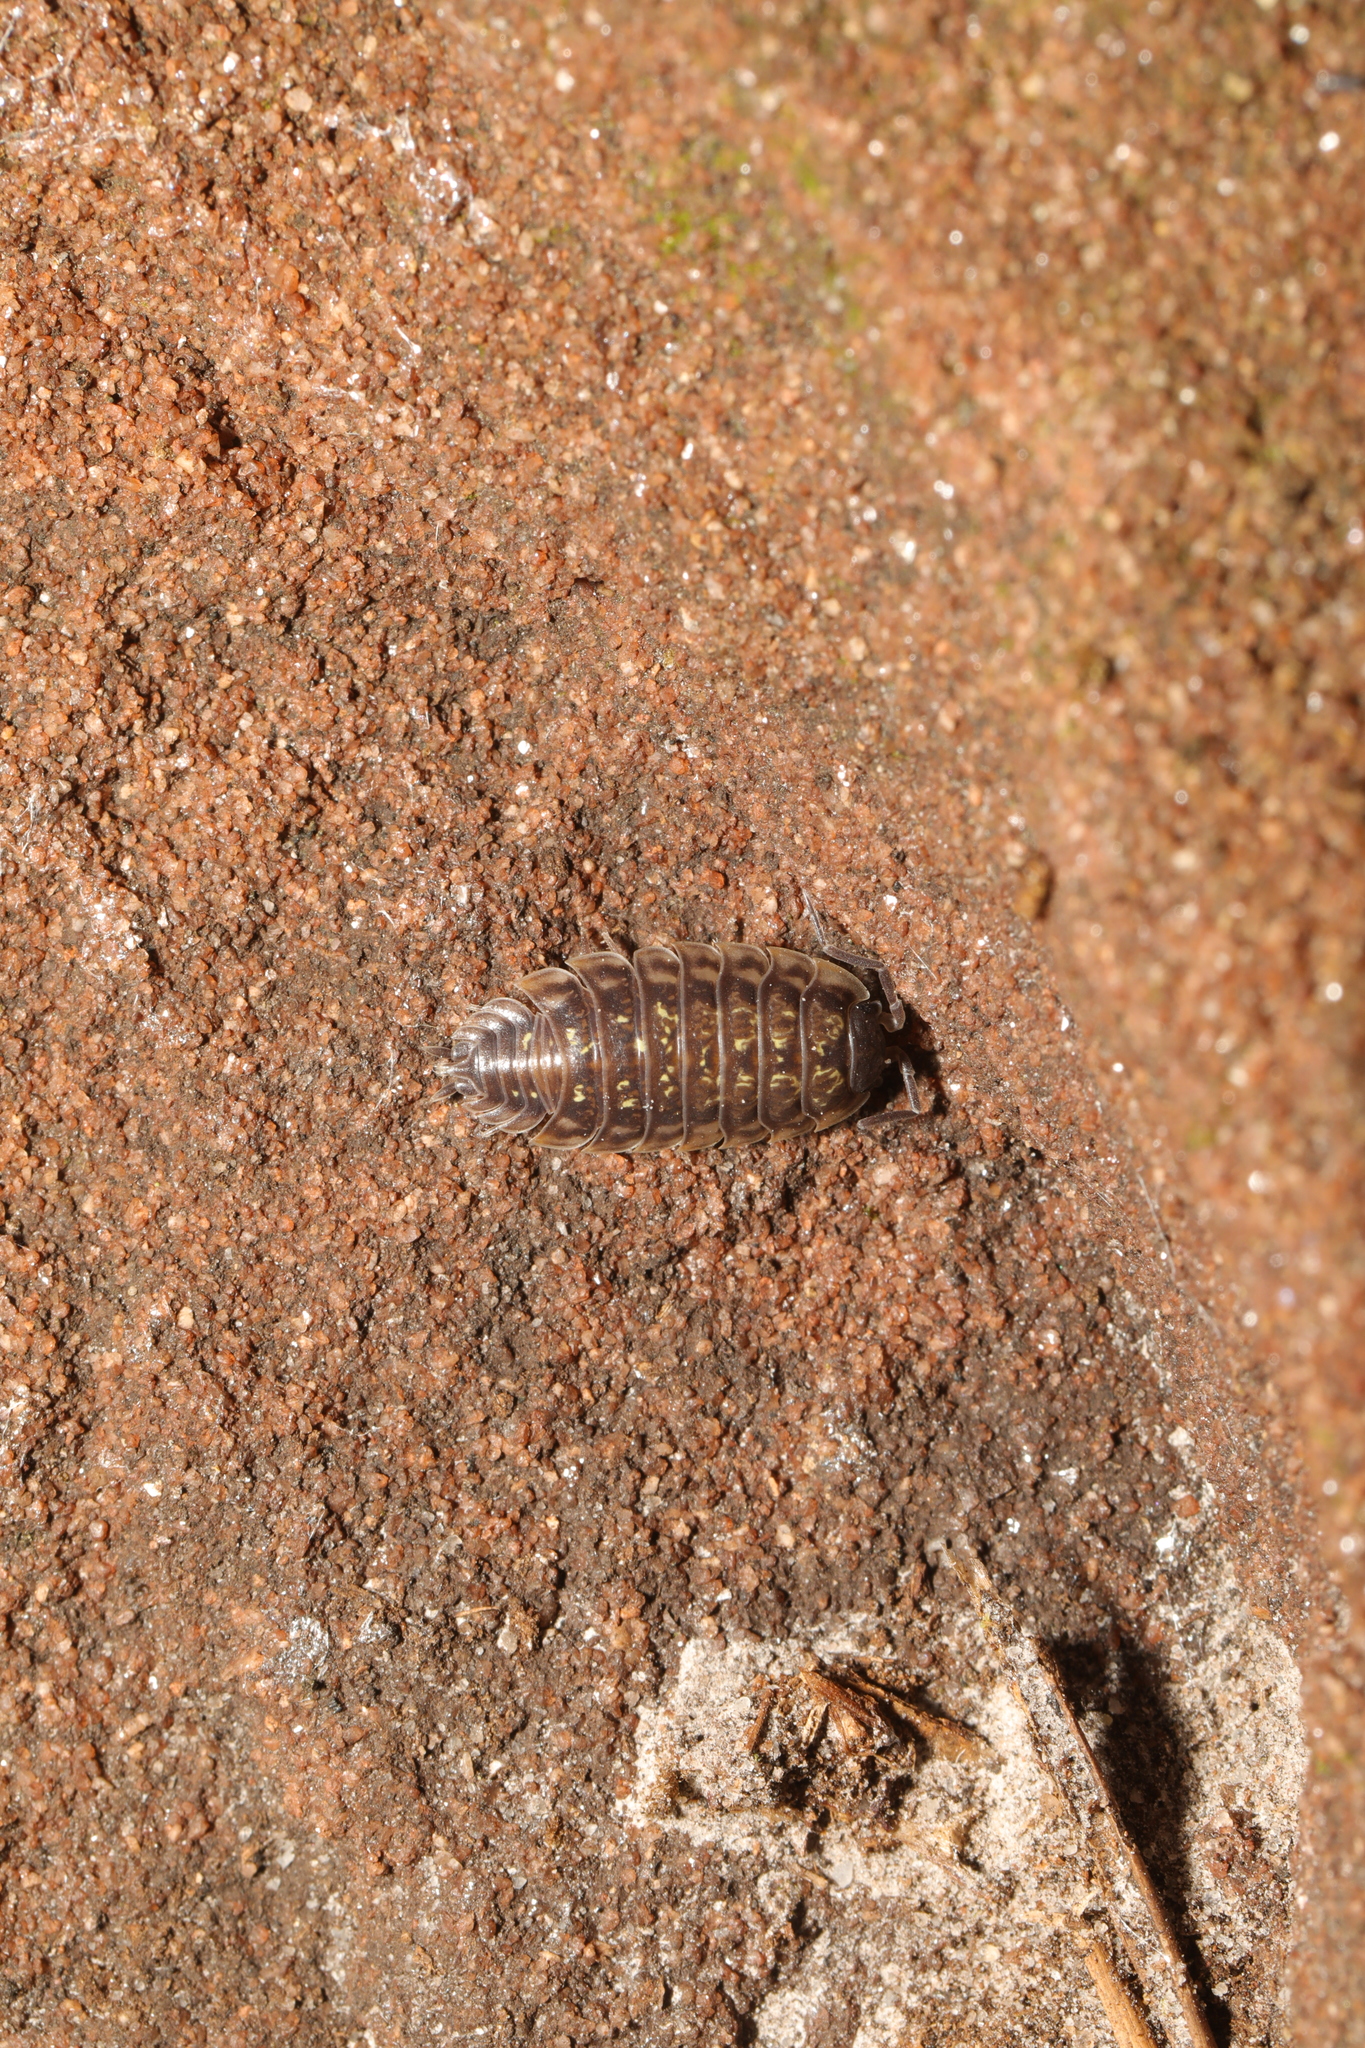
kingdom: Animalia
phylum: Arthropoda
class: Malacostraca
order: Isopoda
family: Oniscidae
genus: Oniscus
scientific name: Oniscus asellus
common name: Common shiny woodlouse
